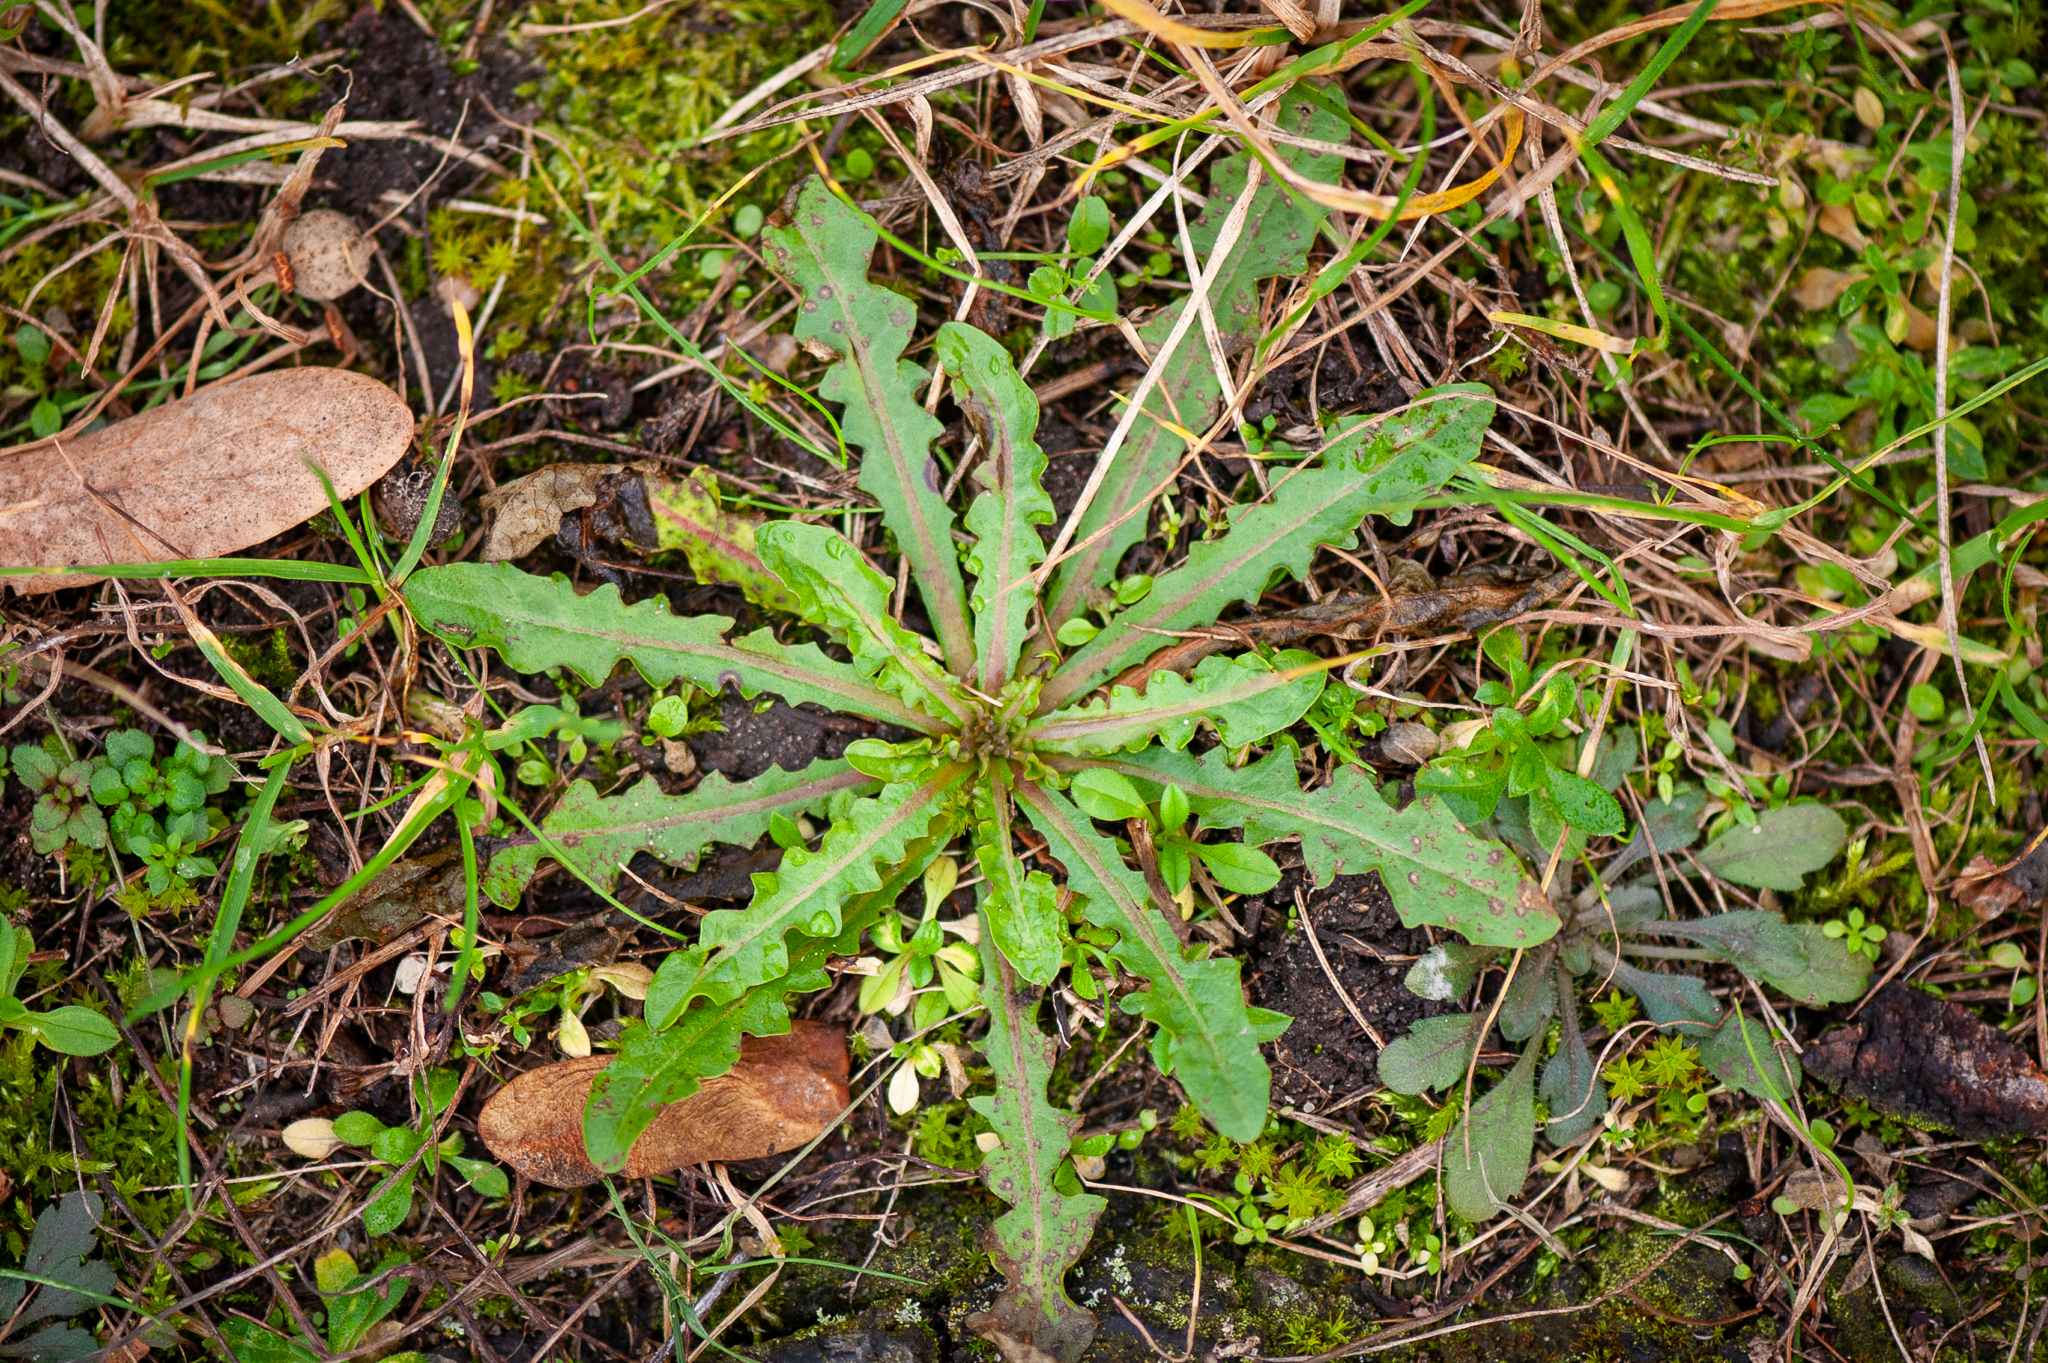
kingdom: Plantae
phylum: Tracheophyta
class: Magnoliopsida
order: Asterales
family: Asteraceae
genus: Hypochaeris
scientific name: Hypochaeris radicata
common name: Flatweed
